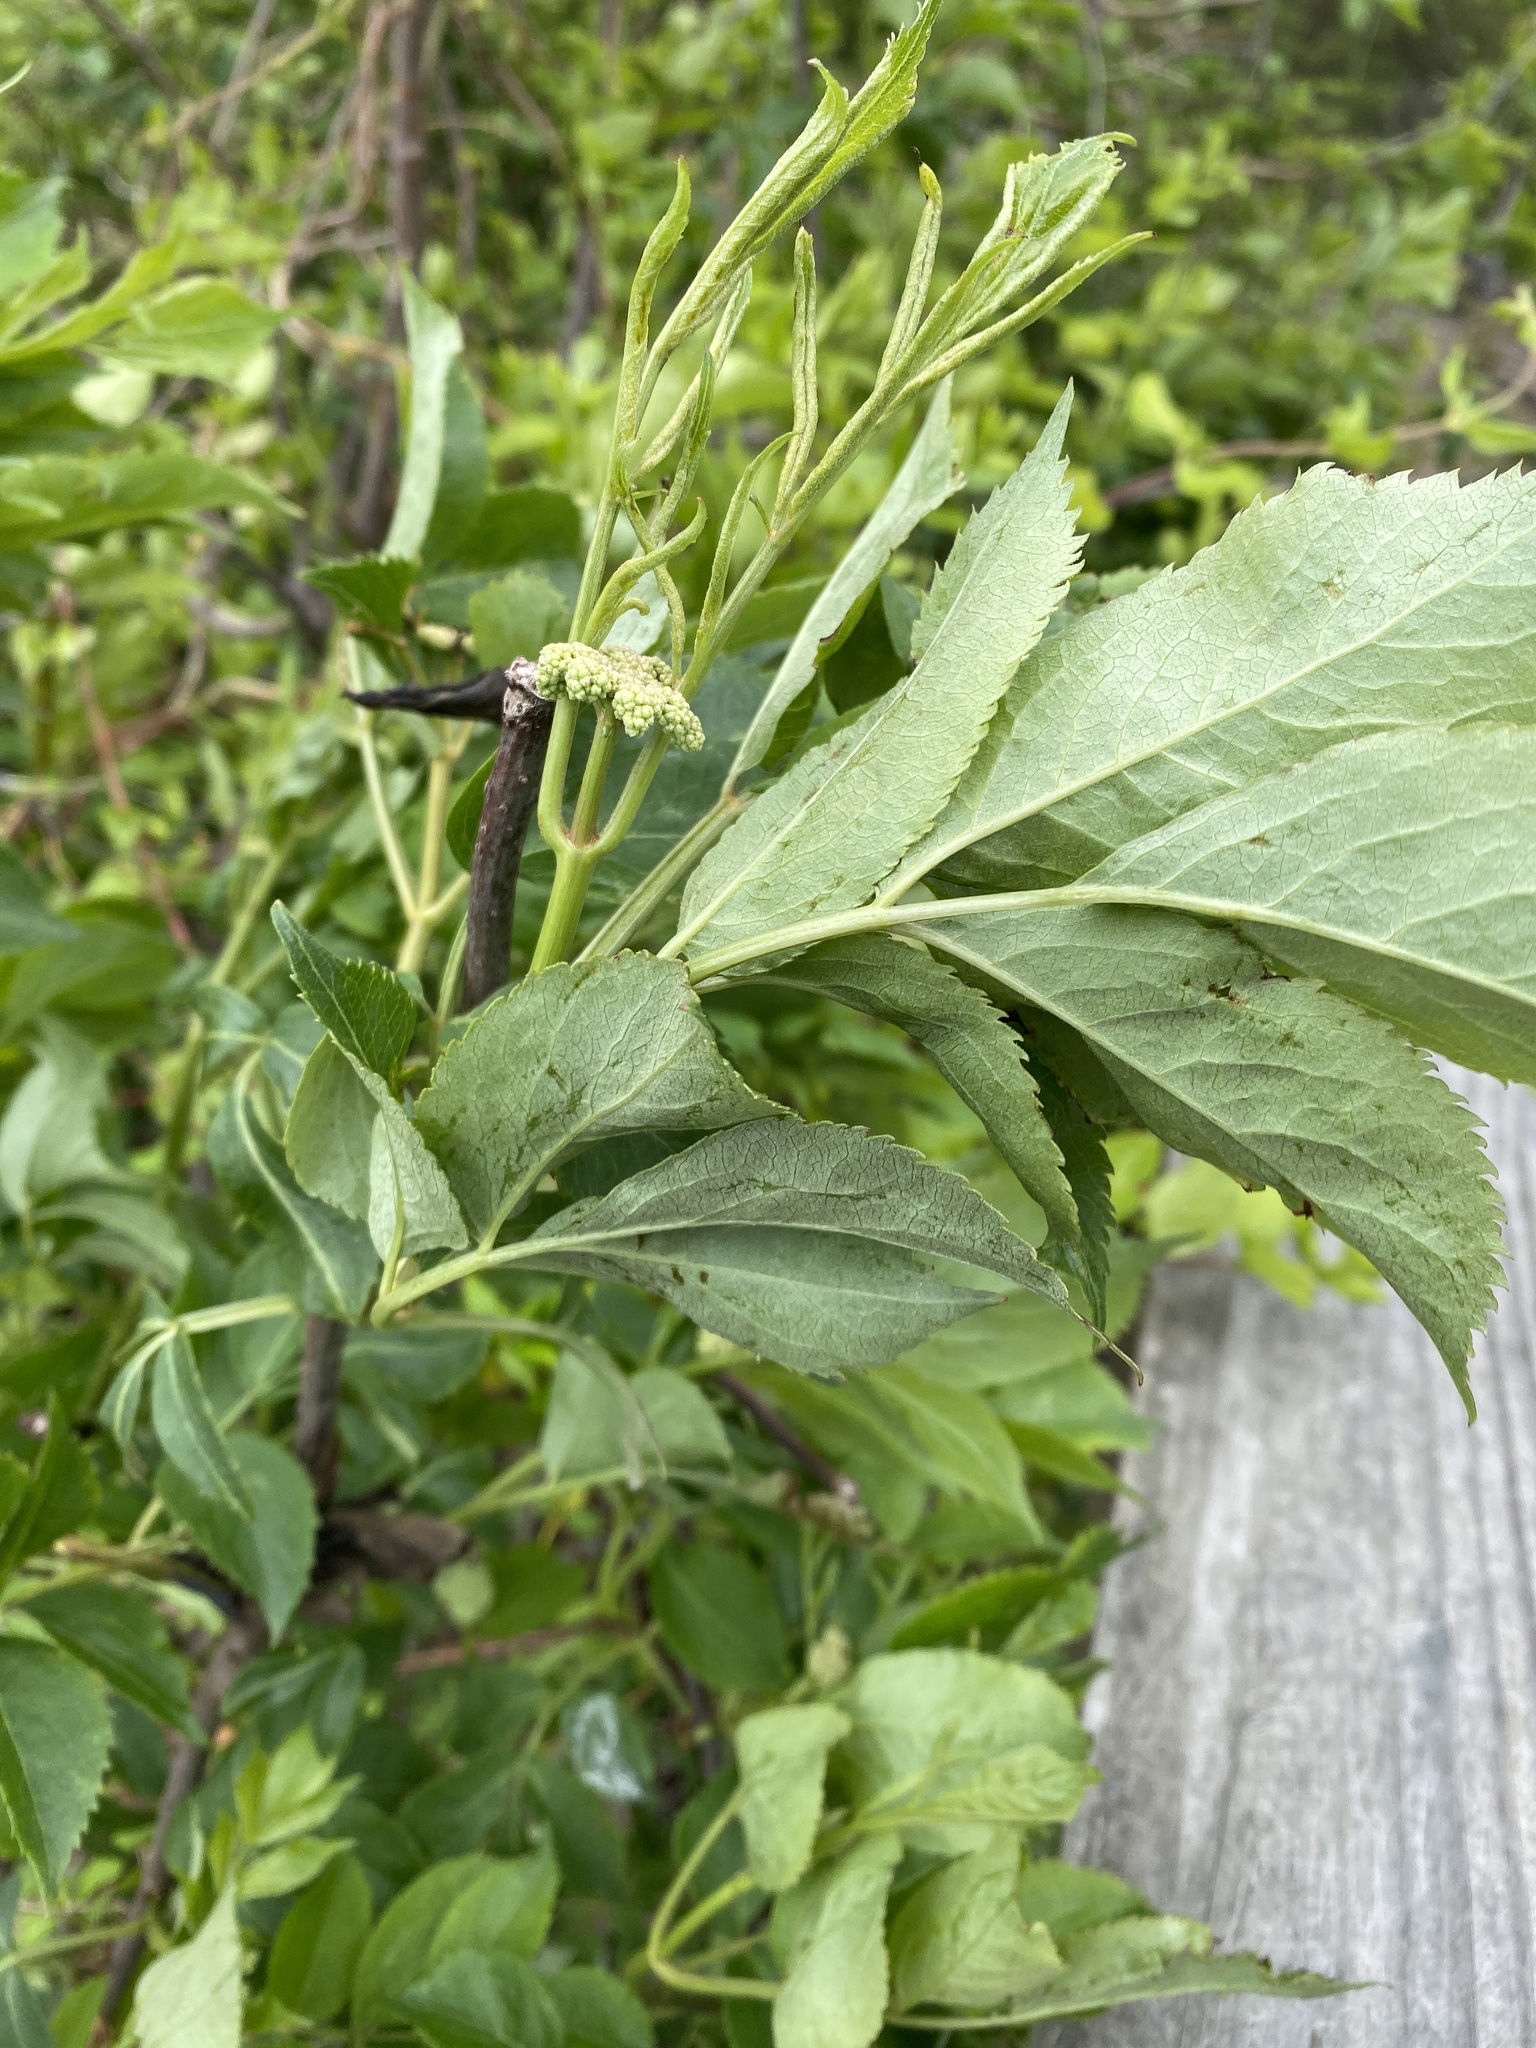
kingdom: Plantae
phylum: Tracheophyta
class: Magnoliopsida
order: Dipsacales
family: Viburnaceae
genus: Sambucus
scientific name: Sambucus canadensis
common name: American elder
